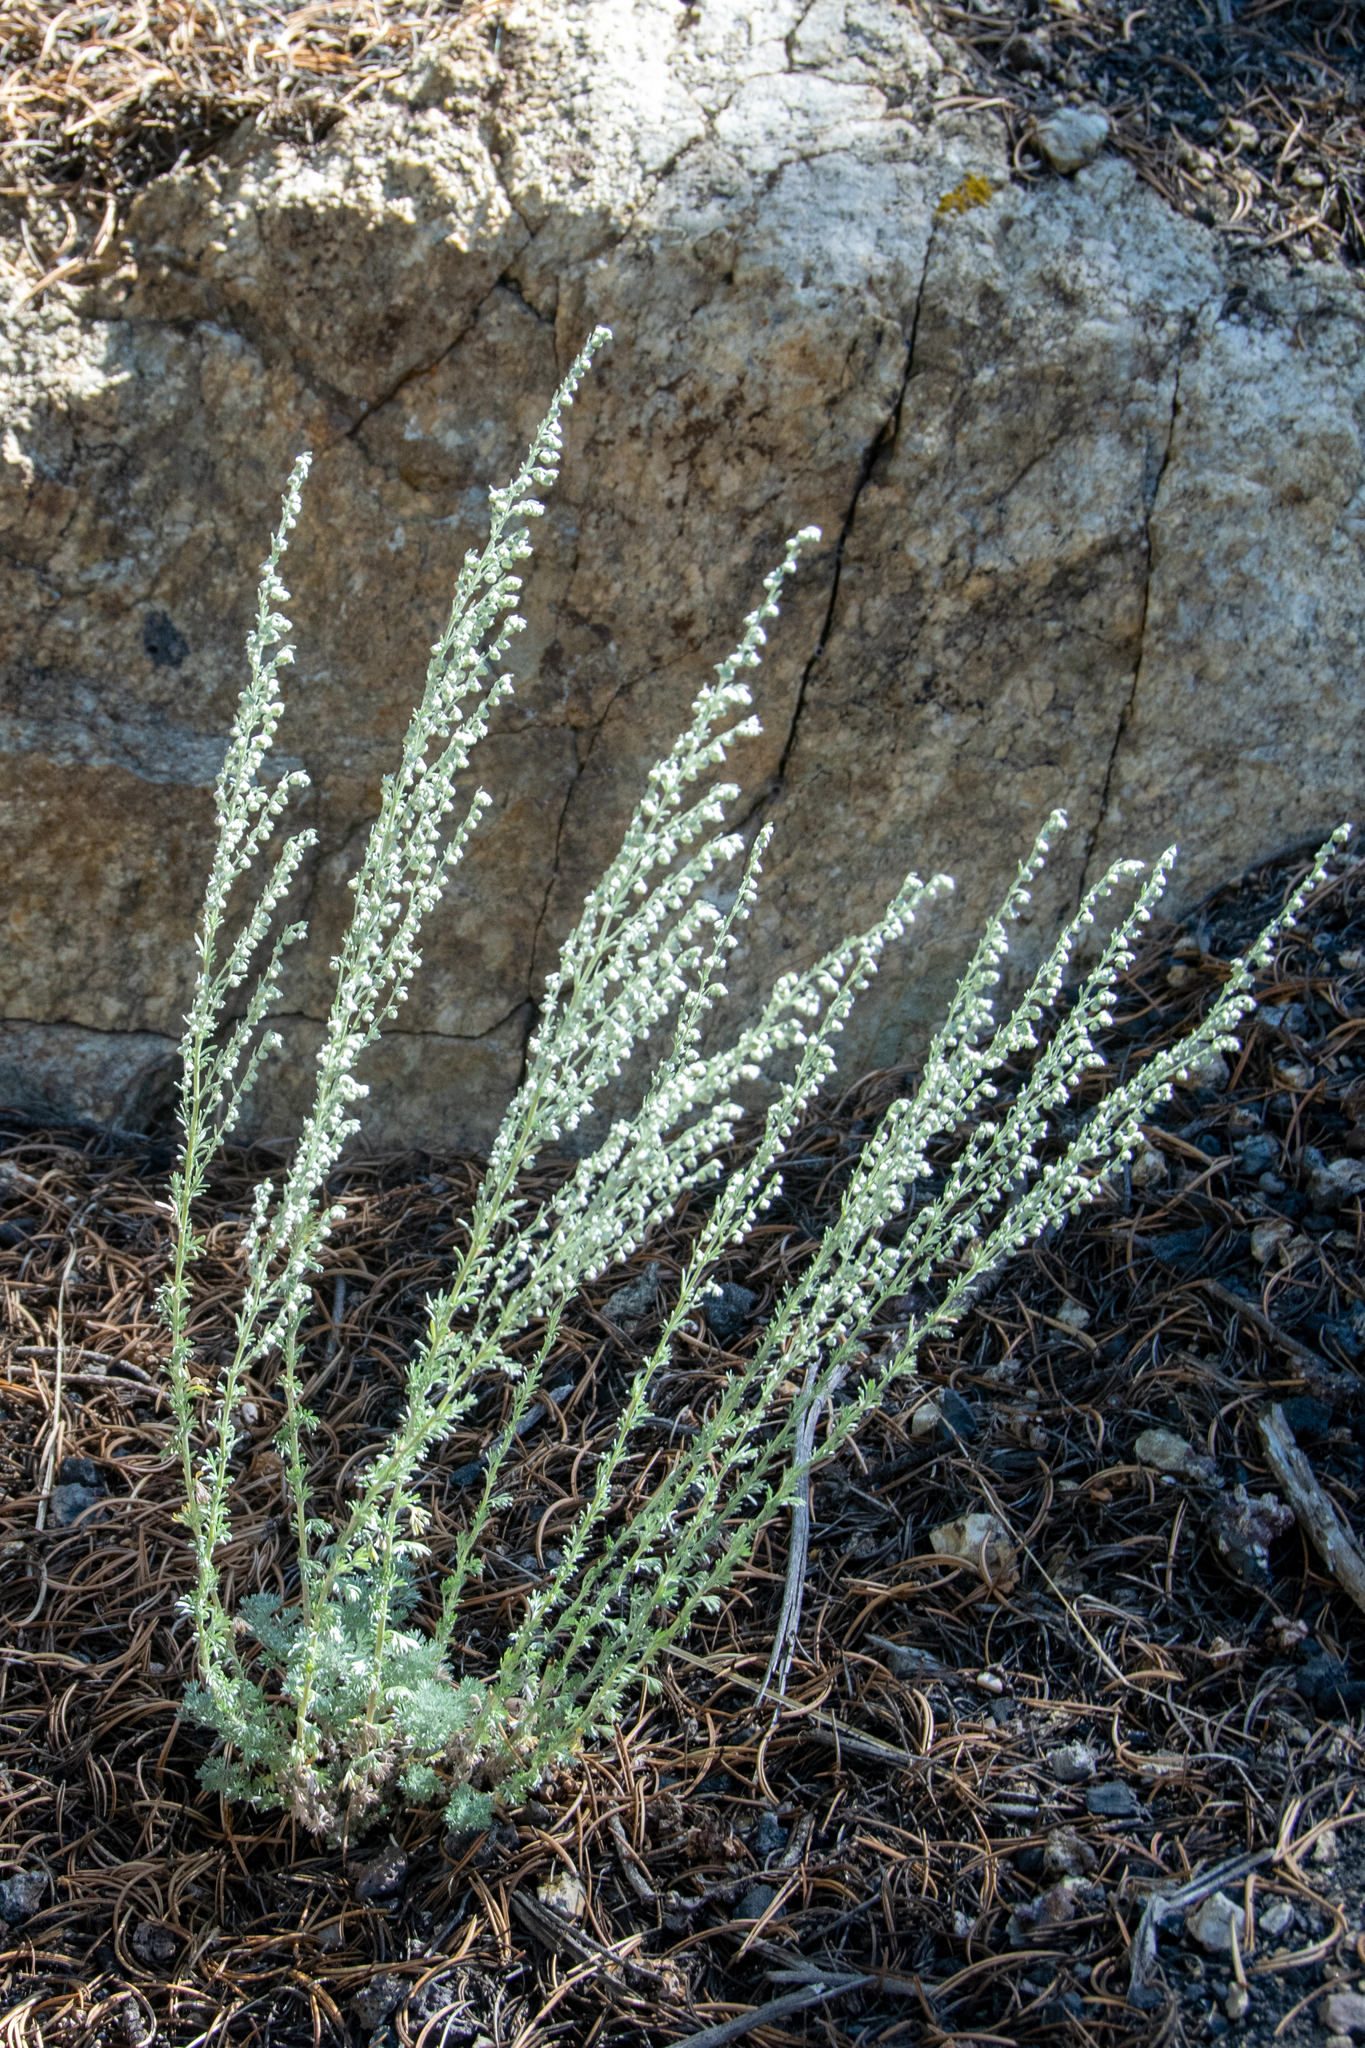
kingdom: Plantae
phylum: Tracheophyta
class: Magnoliopsida
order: Asterales
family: Asteraceae
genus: Artemisia
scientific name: Artemisia frigida
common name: Prairie sagewort
